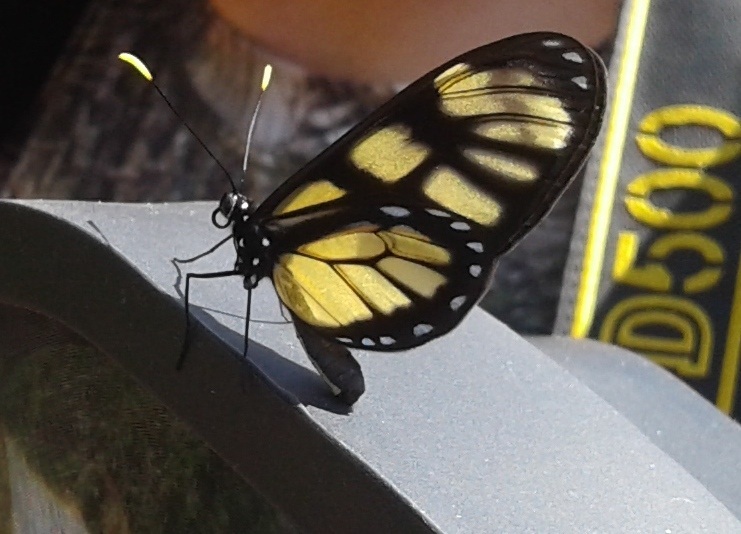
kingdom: Animalia
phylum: Arthropoda
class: Insecta
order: Lepidoptera
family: Nymphalidae
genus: Dircenna
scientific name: Dircenna dero
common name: Dero clearwing
